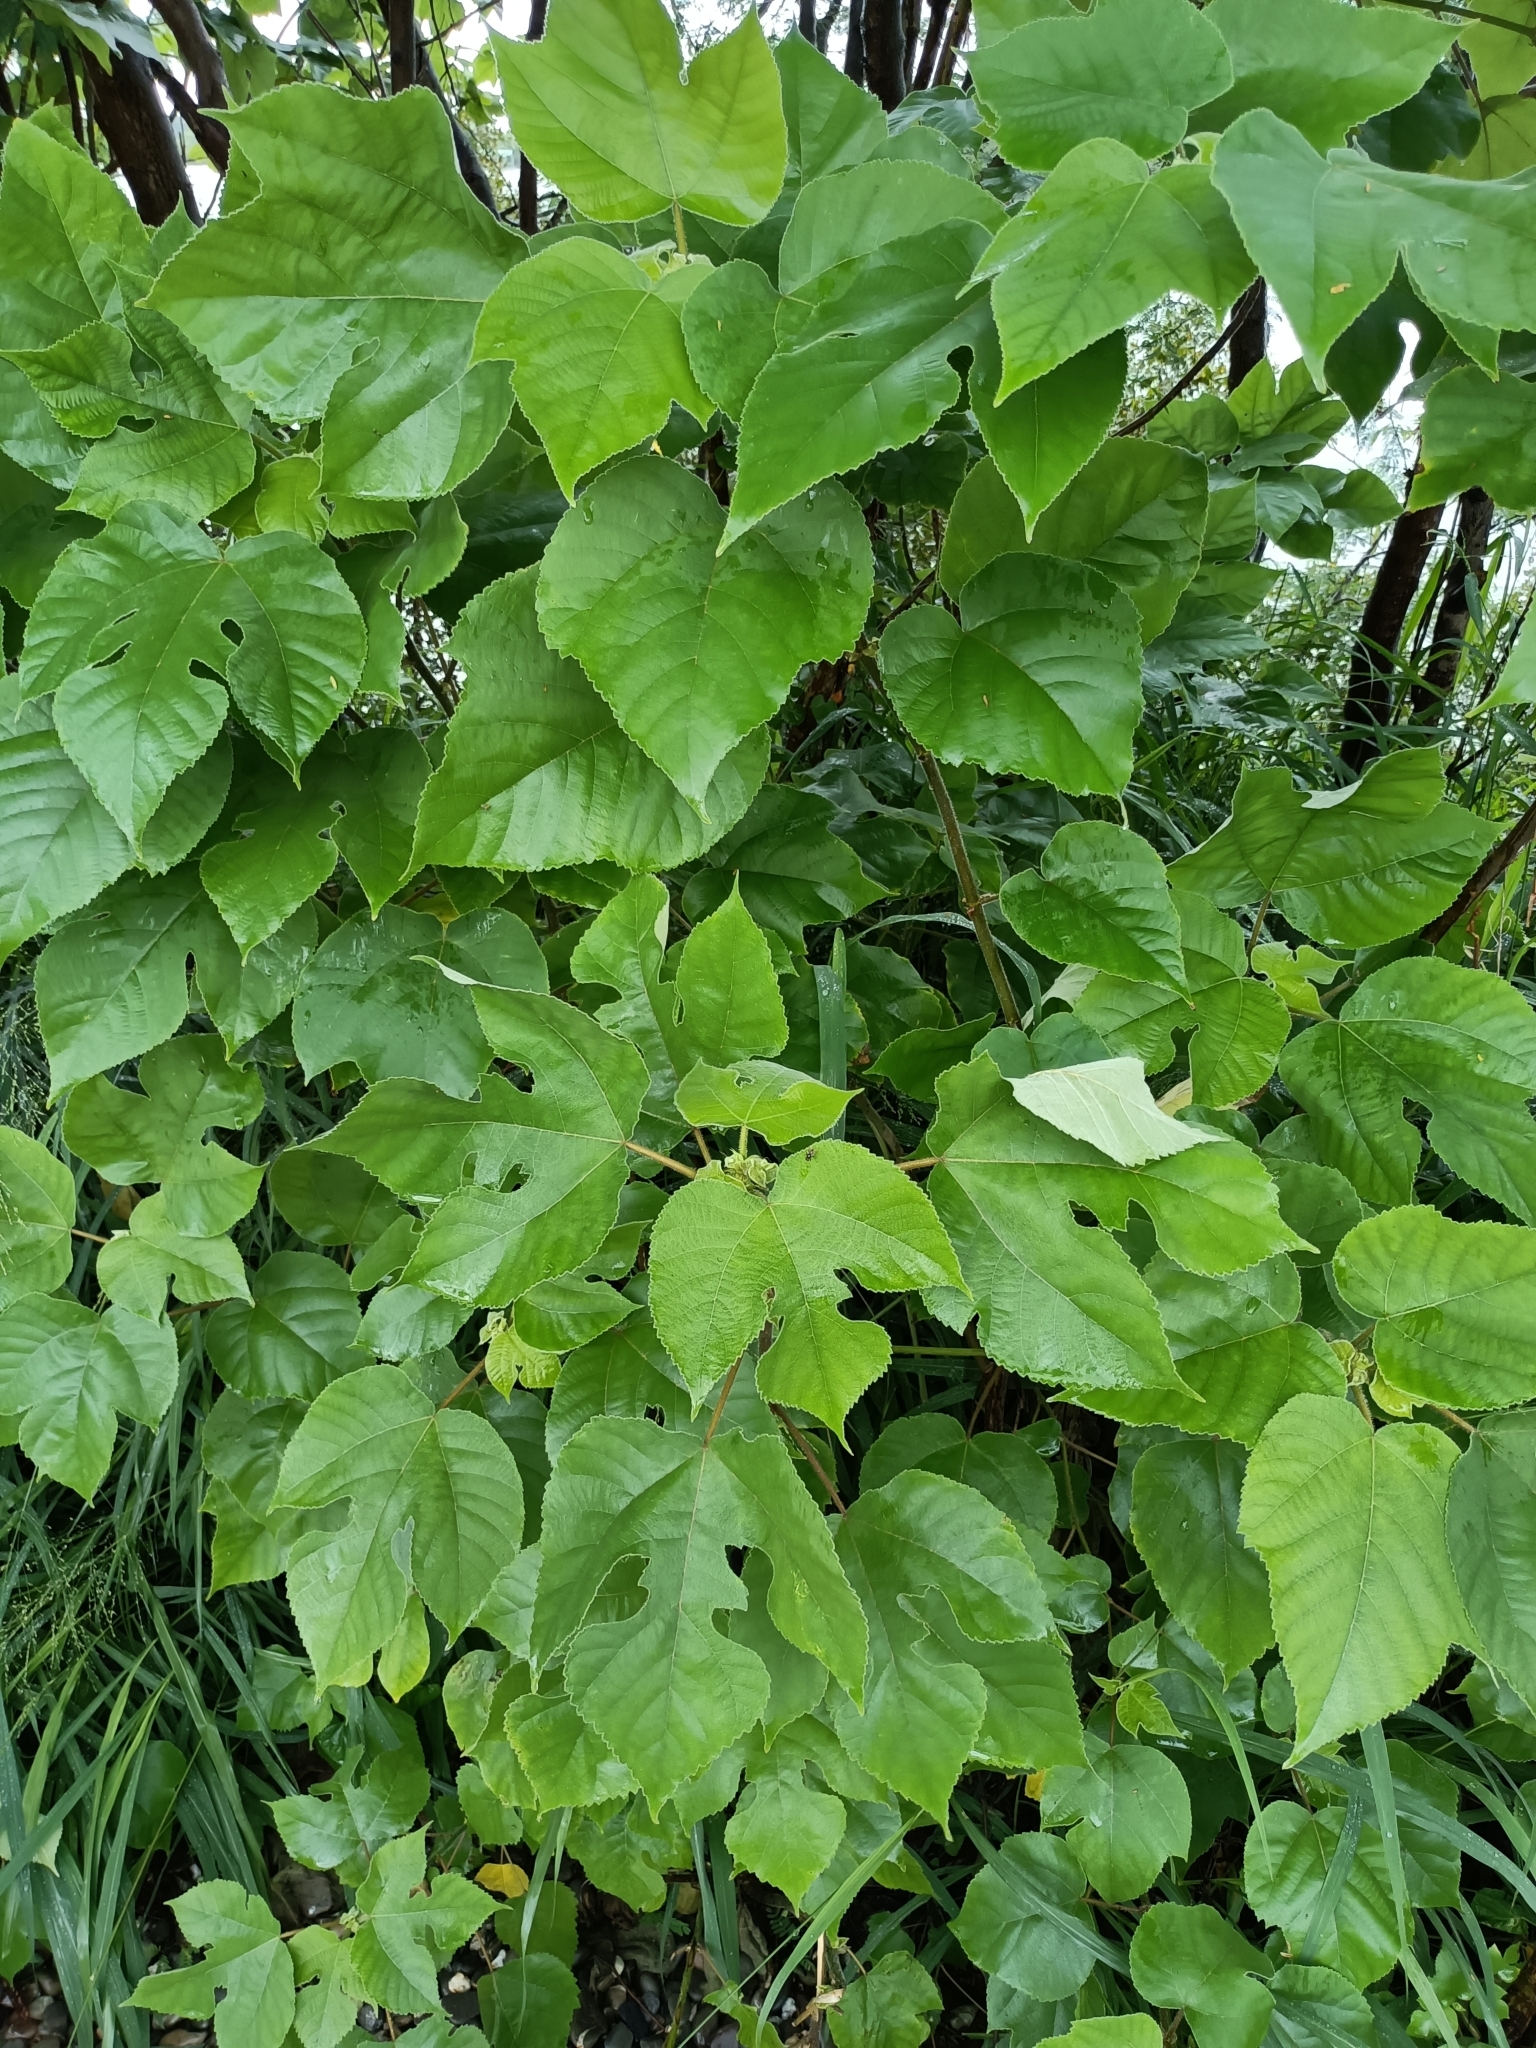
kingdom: Plantae
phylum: Tracheophyta
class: Magnoliopsida
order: Rosales
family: Moraceae
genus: Broussonetia
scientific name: Broussonetia papyrifera
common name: Paper mulberry
